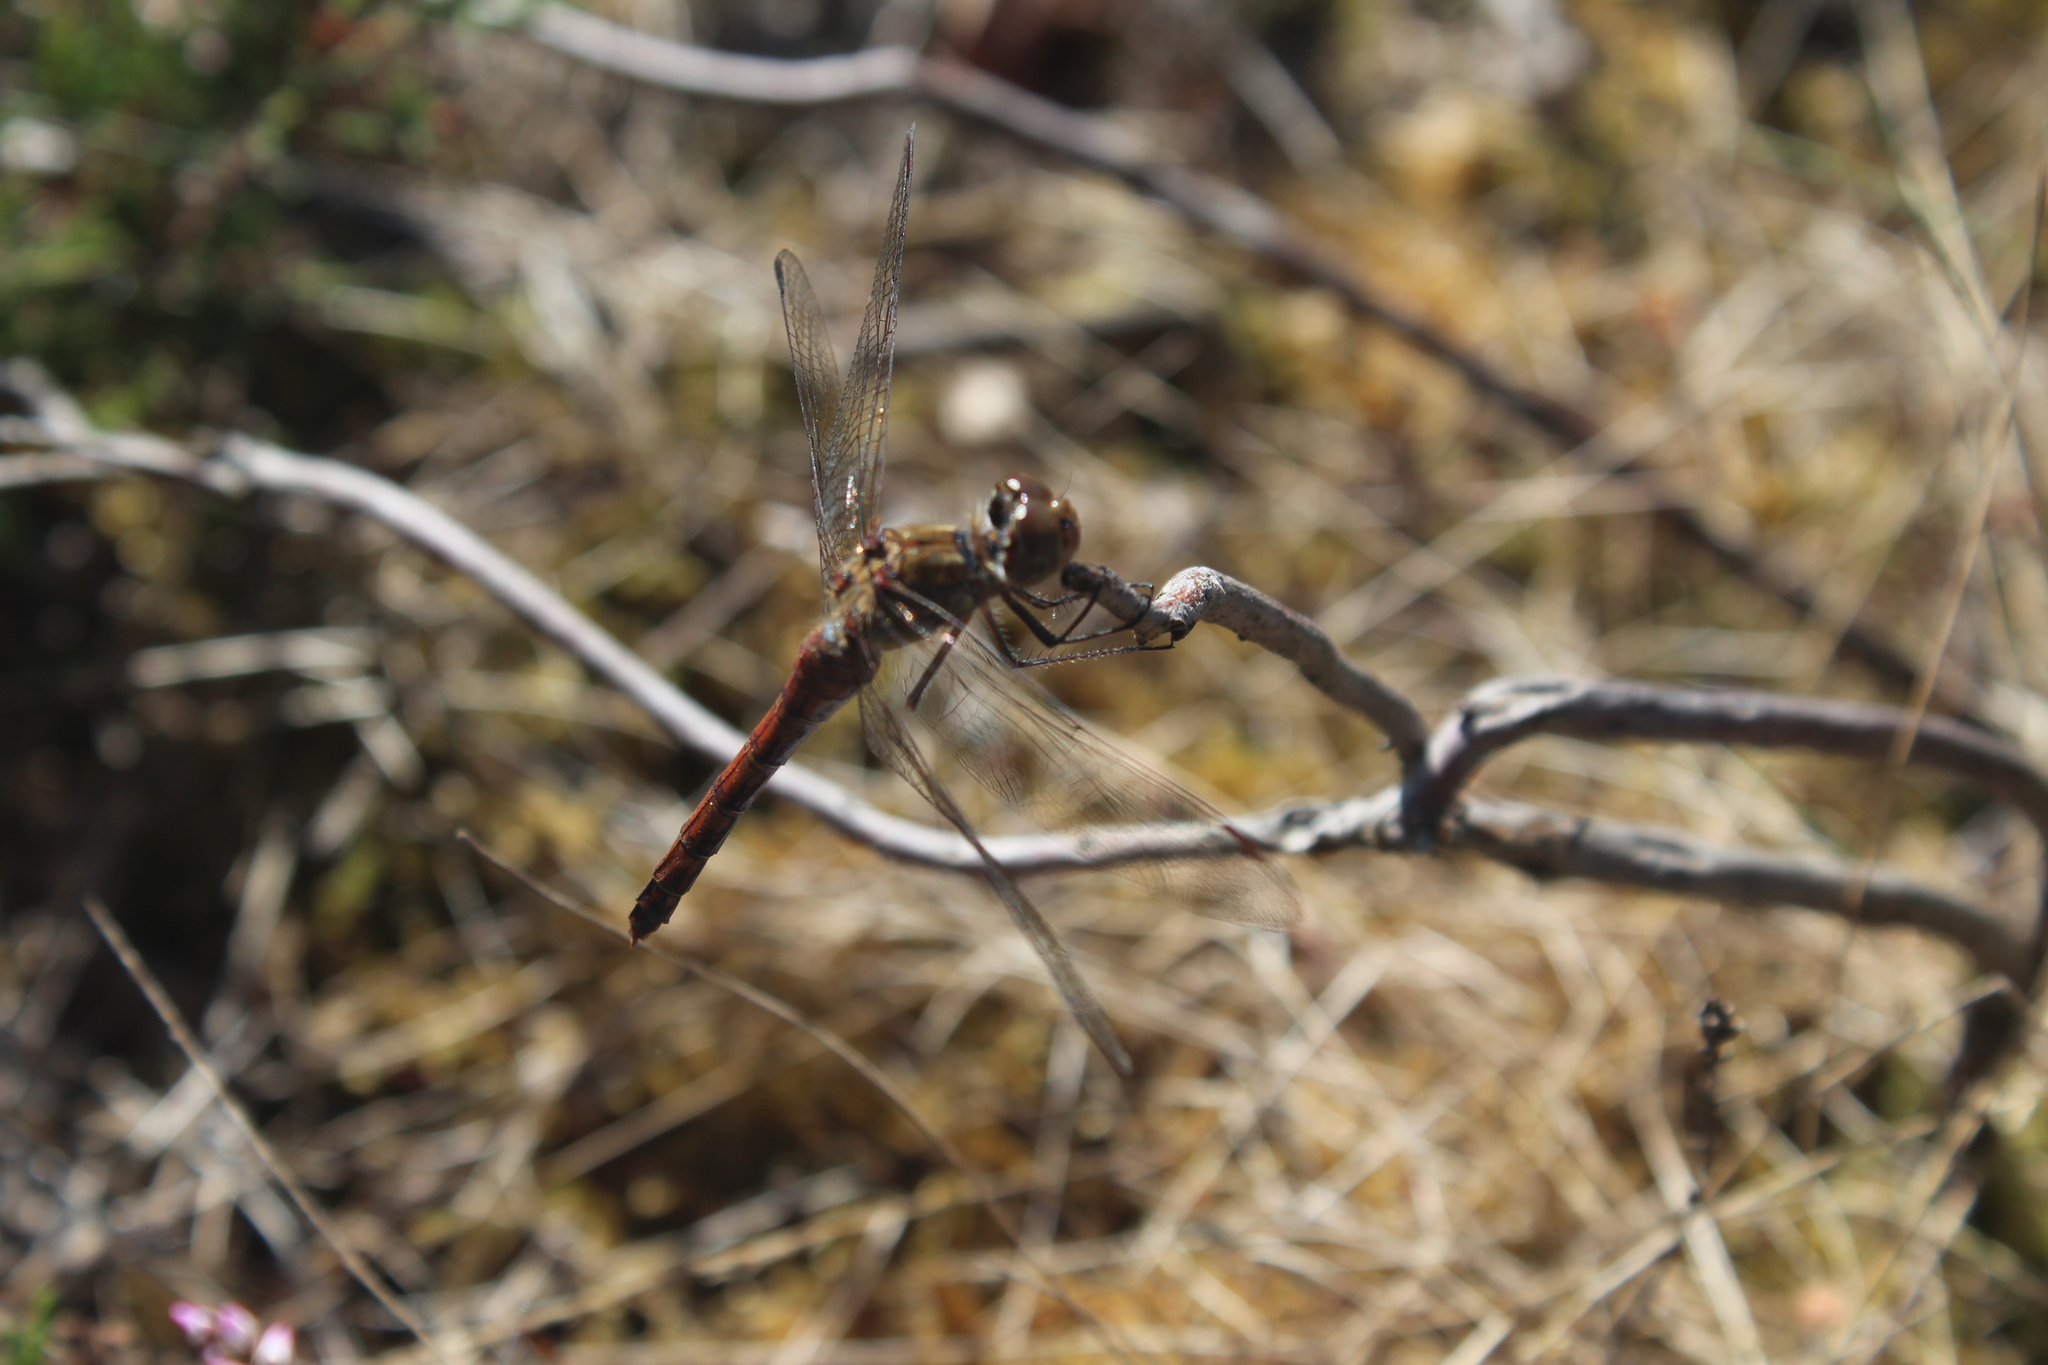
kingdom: Animalia
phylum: Arthropoda
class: Insecta
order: Odonata
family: Libellulidae
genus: Sympetrum
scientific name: Sympetrum striolatum
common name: Common darter
